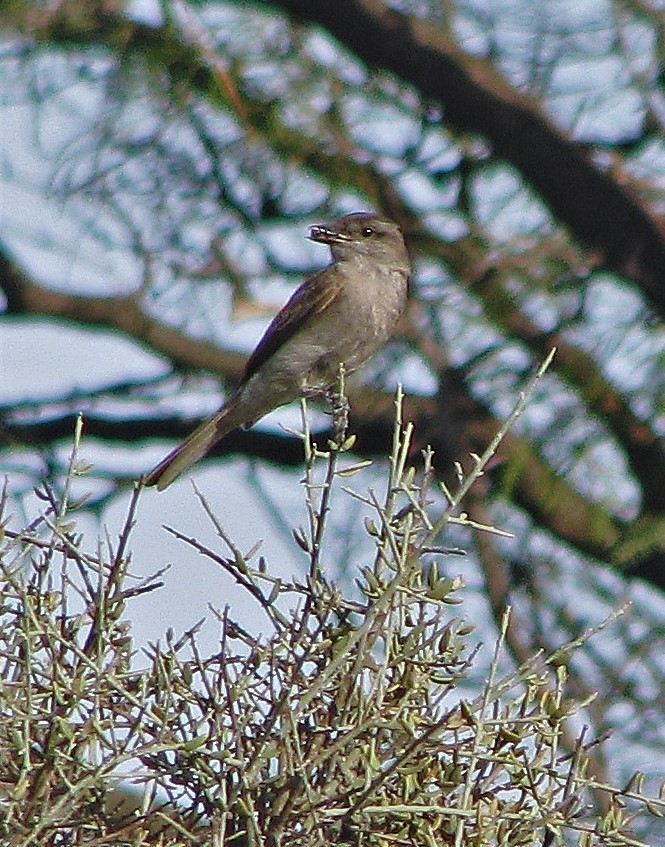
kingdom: Animalia
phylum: Chordata
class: Aves
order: Passeriformes
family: Tyrannidae
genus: Empidonomus
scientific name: Empidonomus aurantioatrocristatus
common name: Crowned slaty flycatcher
